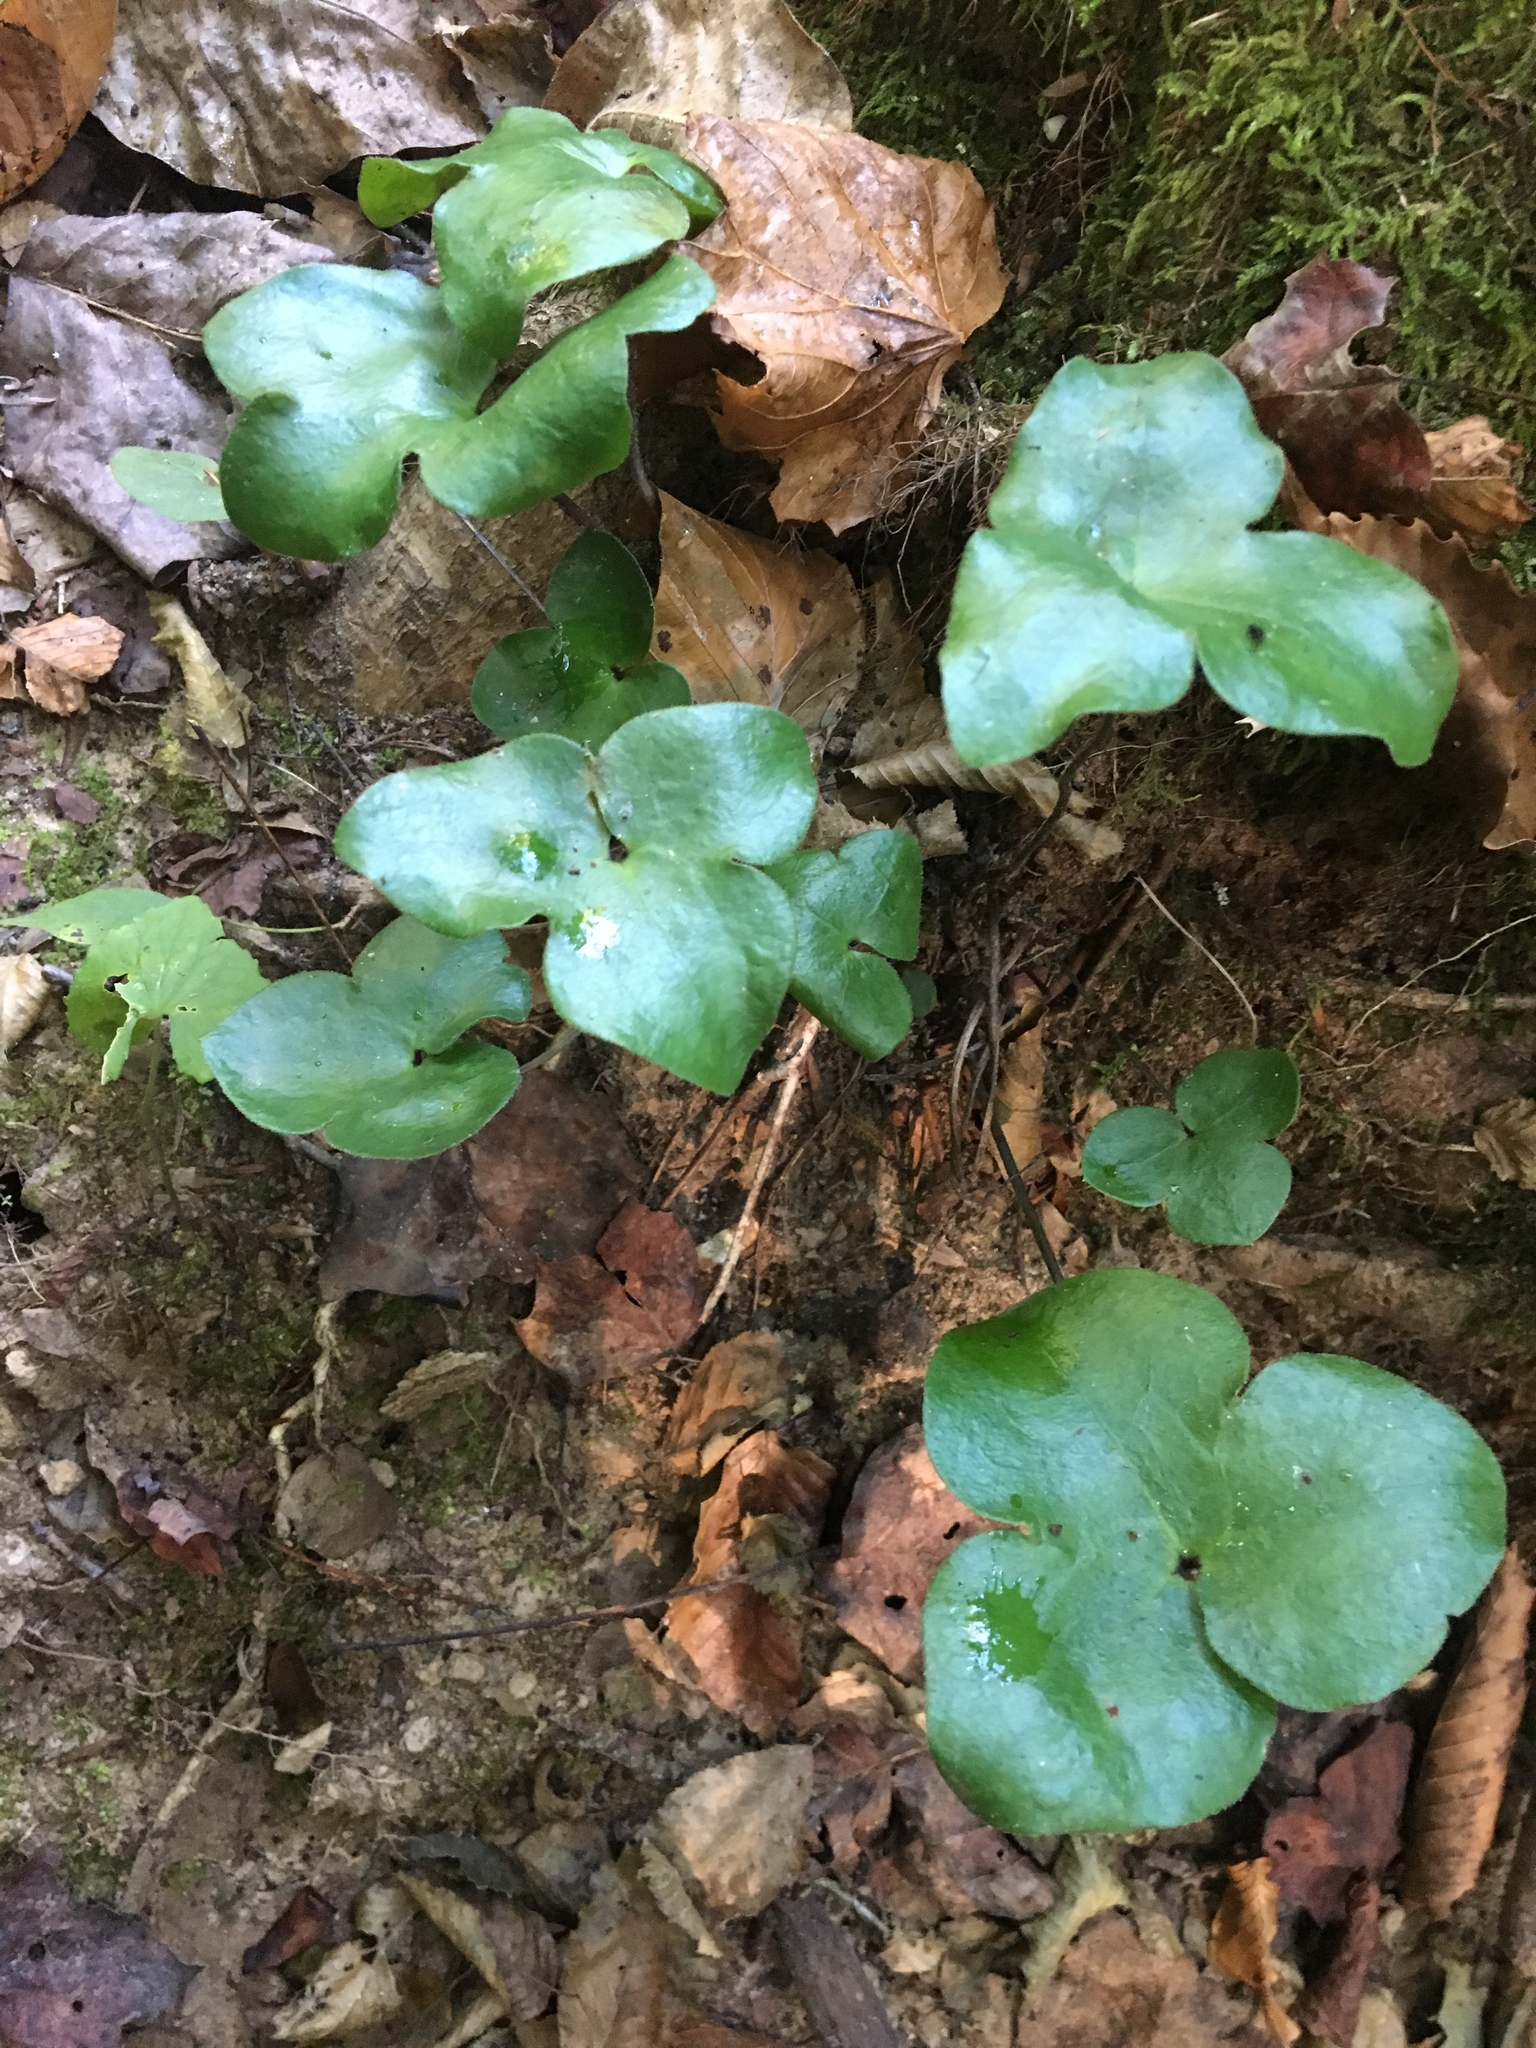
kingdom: Plantae
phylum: Tracheophyta
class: Magnoliopsida
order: Ranunculales
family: Ranunculaceae
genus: Hepatica
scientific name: Hepatica americana
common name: American hepatica
